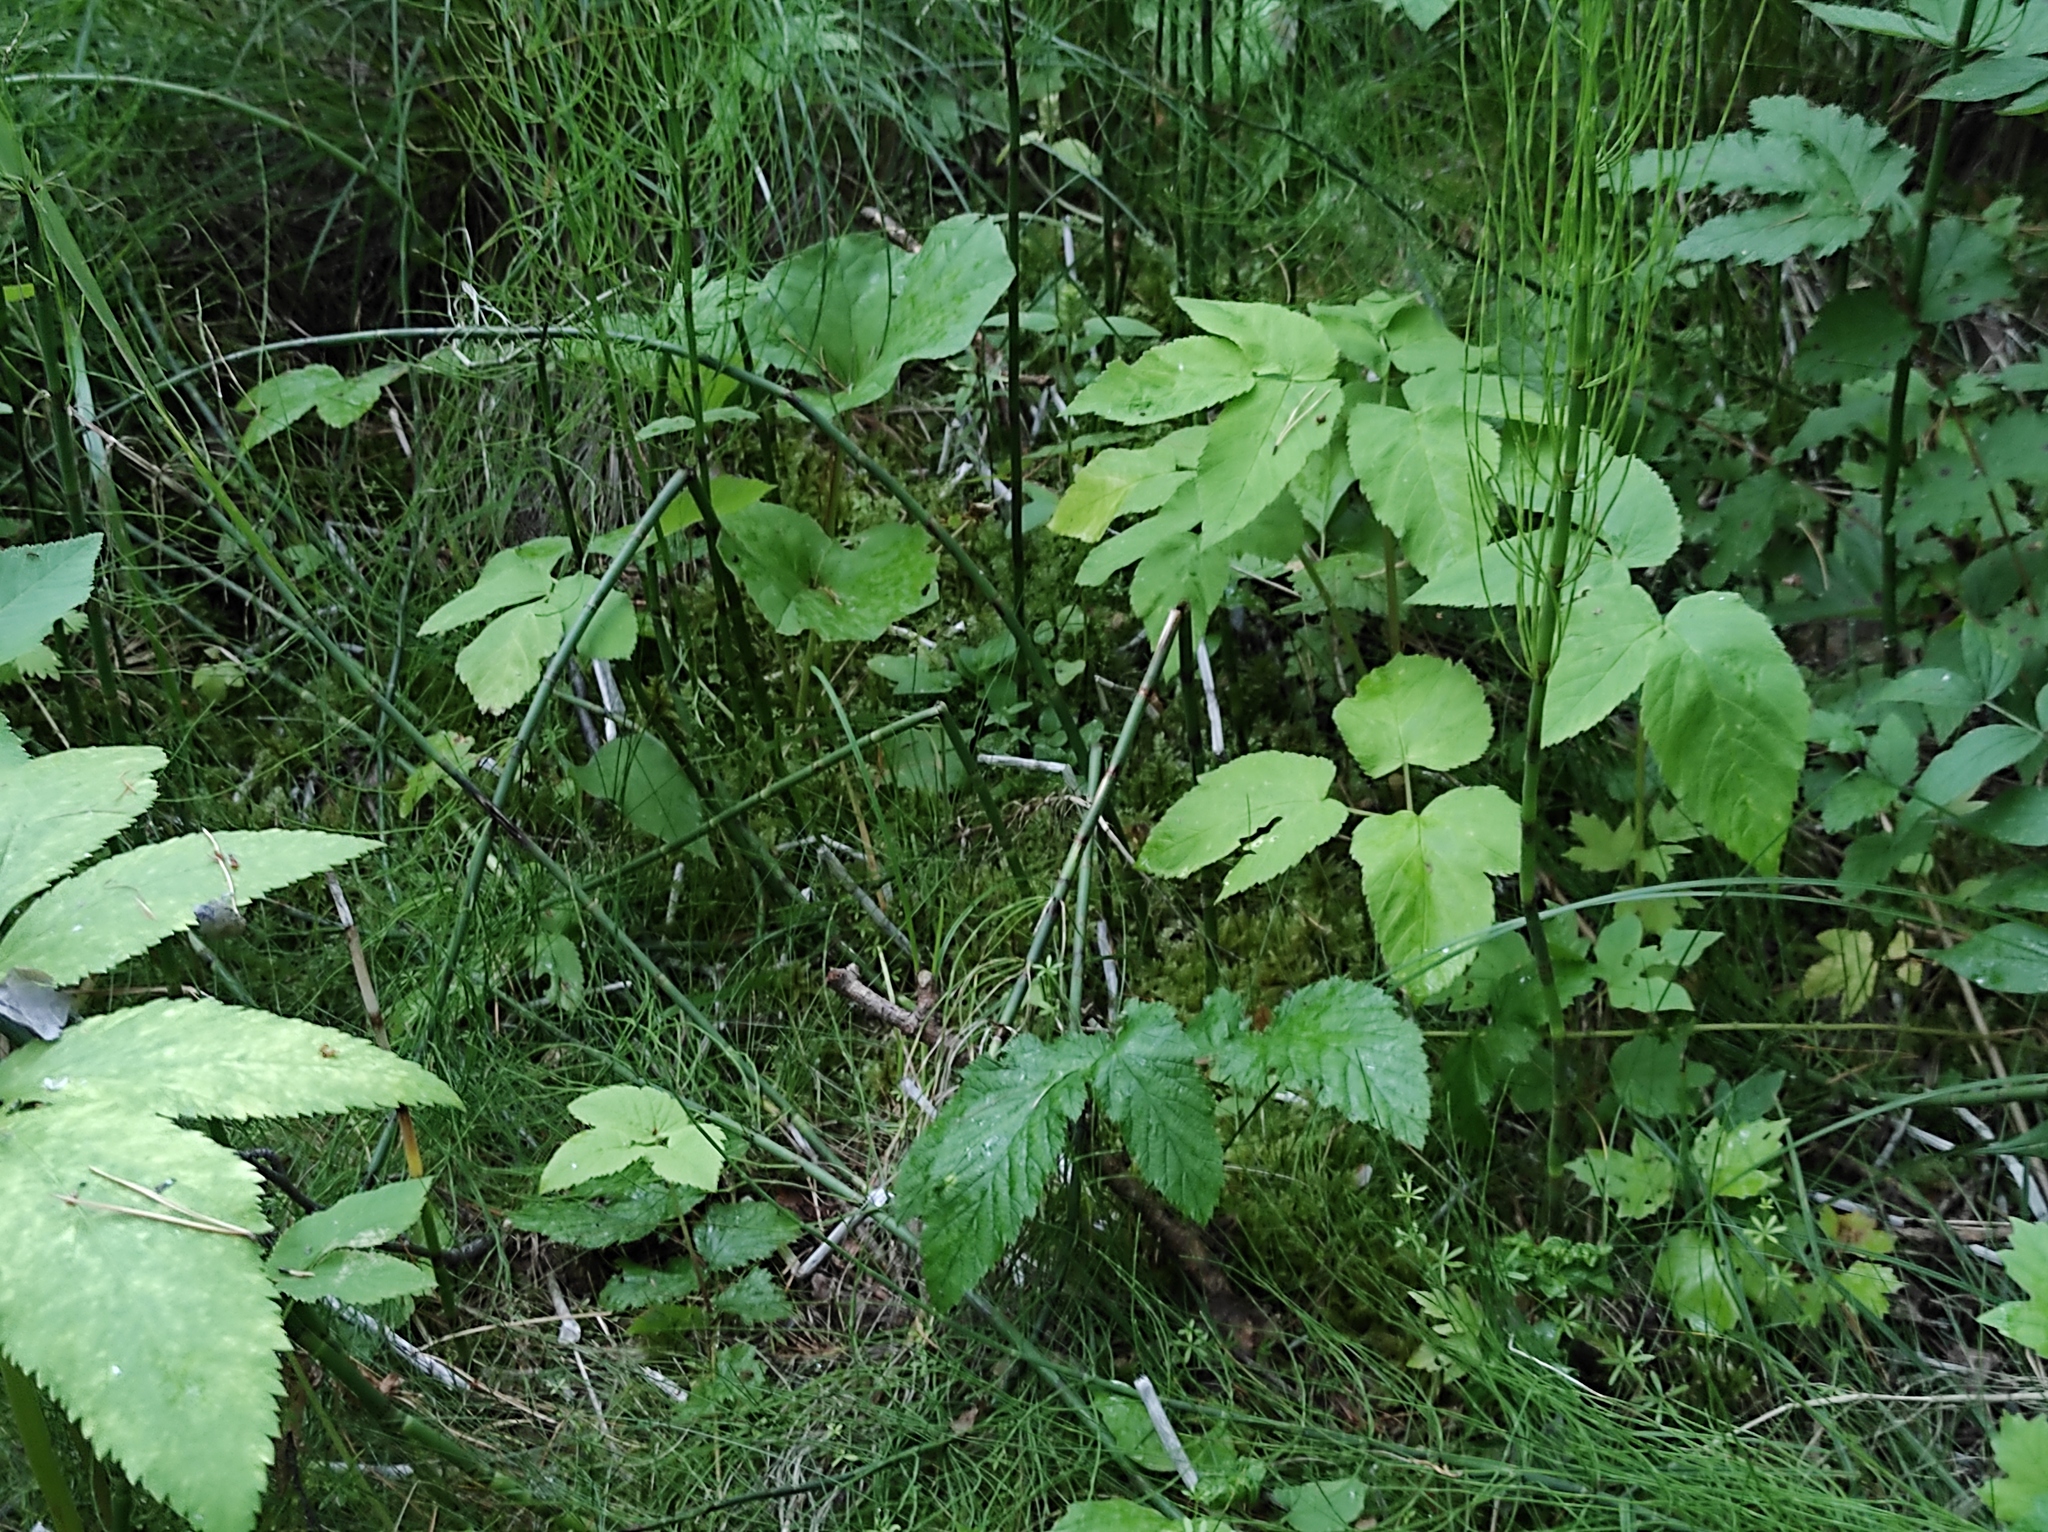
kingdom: Plantae
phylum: Tracheophyta
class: Polypodiopsida
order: Equisetales
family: Equisetaceae
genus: Equisetum
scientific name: Equisetum fluviatile
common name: Water horsetail
